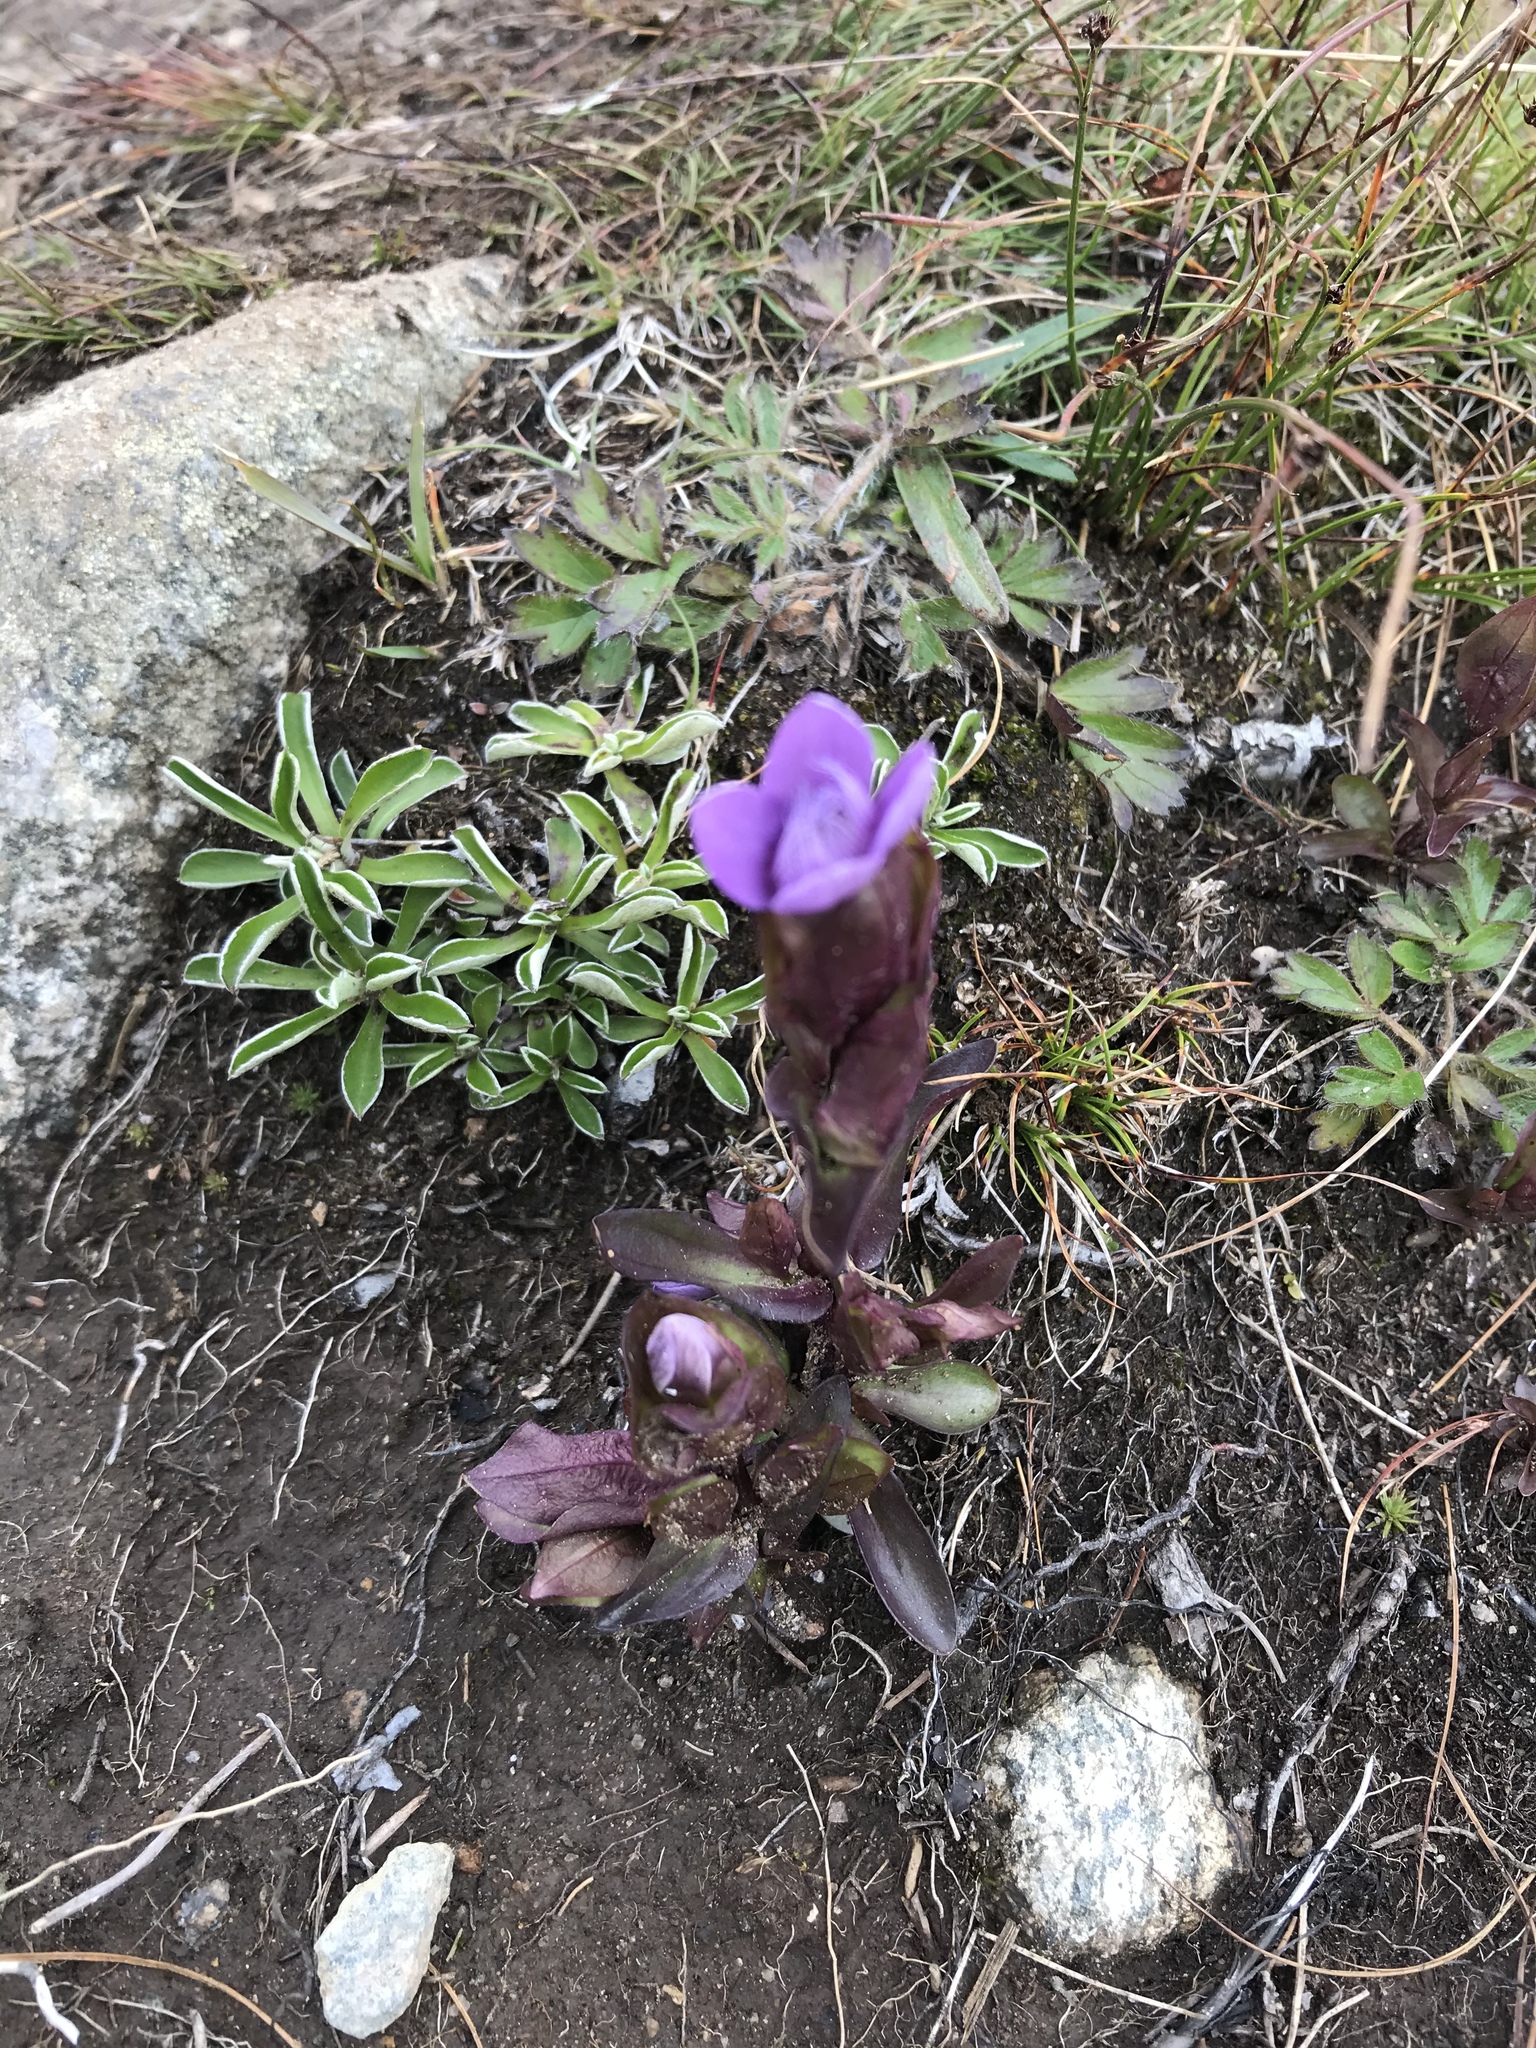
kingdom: Plantae
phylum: Tracheophyta
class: Magnoliopsida
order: Gentianales
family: Gentianaceae
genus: Gentianella
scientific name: Gentianella campestris
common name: Field gentian
